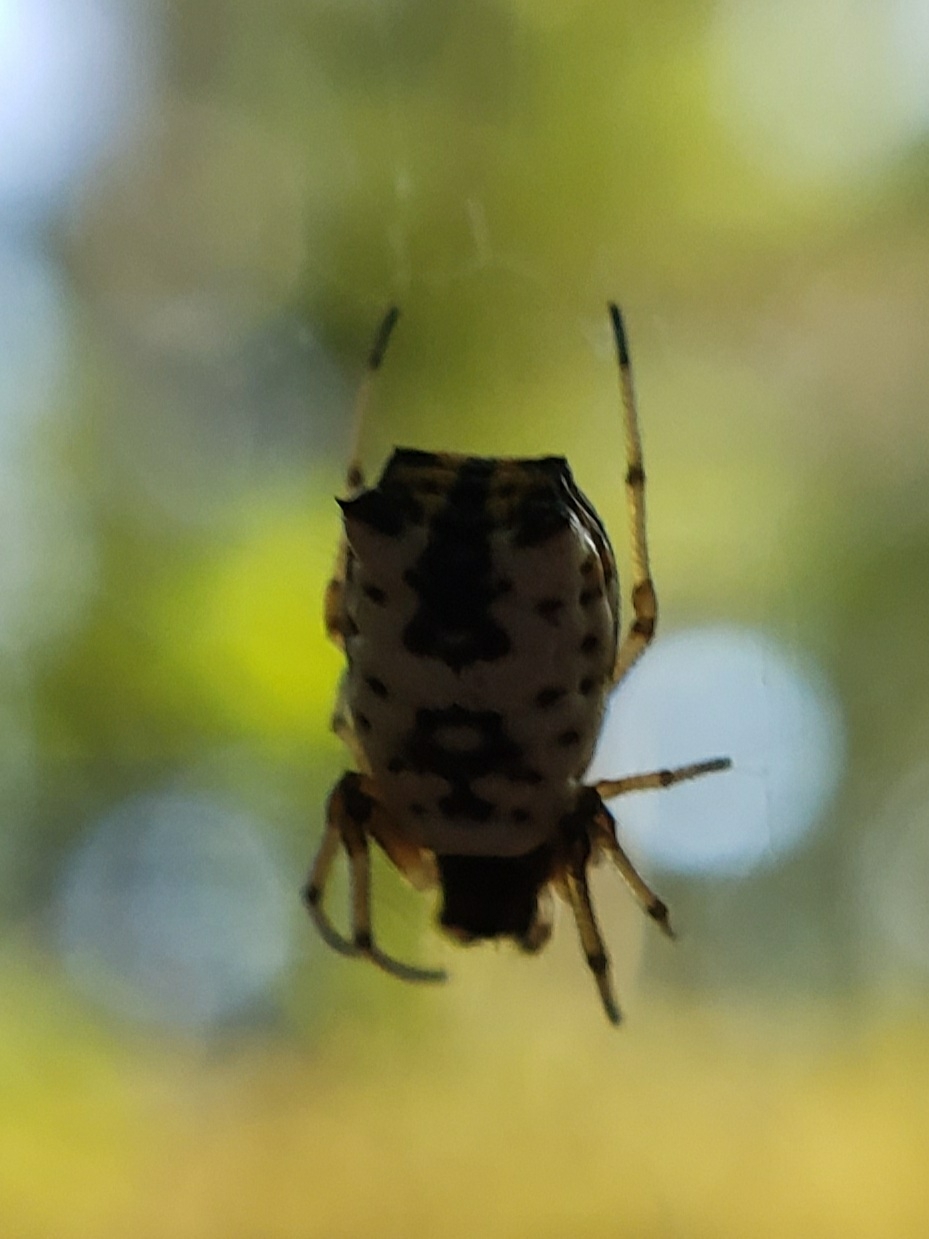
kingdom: Animalia
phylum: Arthropoda
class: Arachnida
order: Araneae
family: Araneidae
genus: Micrathena
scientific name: Micrathena mitrata
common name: Orb weavers
